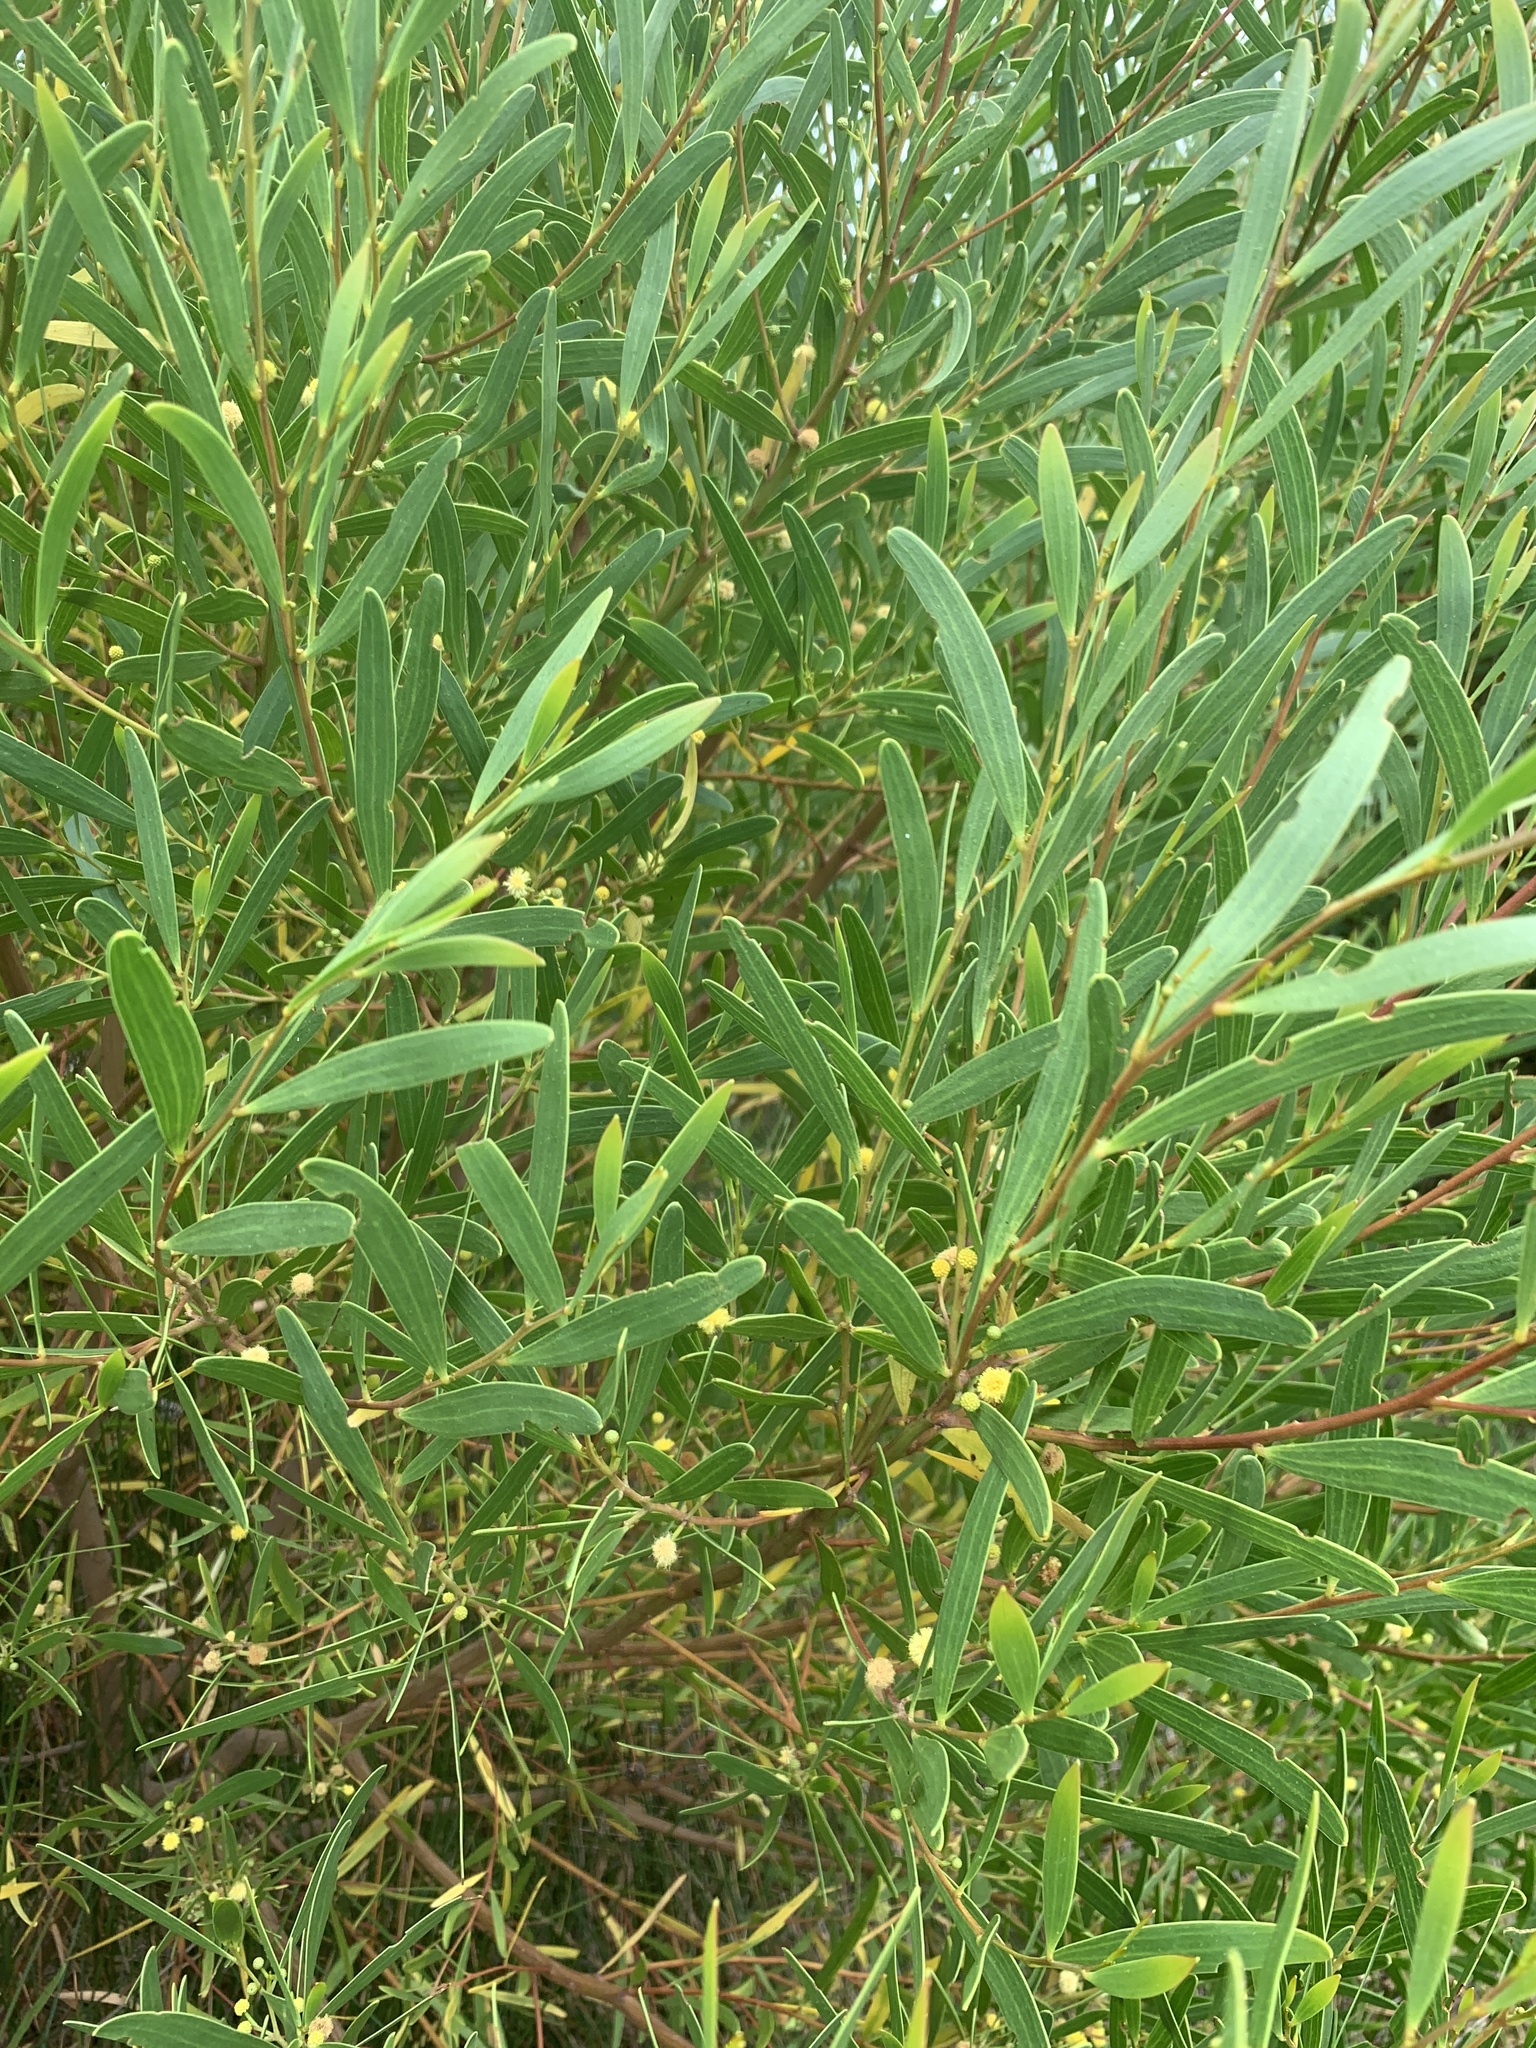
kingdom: Plantae
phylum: Tracheophyta
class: Magnoliopsida
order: Fabales
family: Fabaceae
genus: Acacia
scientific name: Acacia cyclops
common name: Coastal wattle
